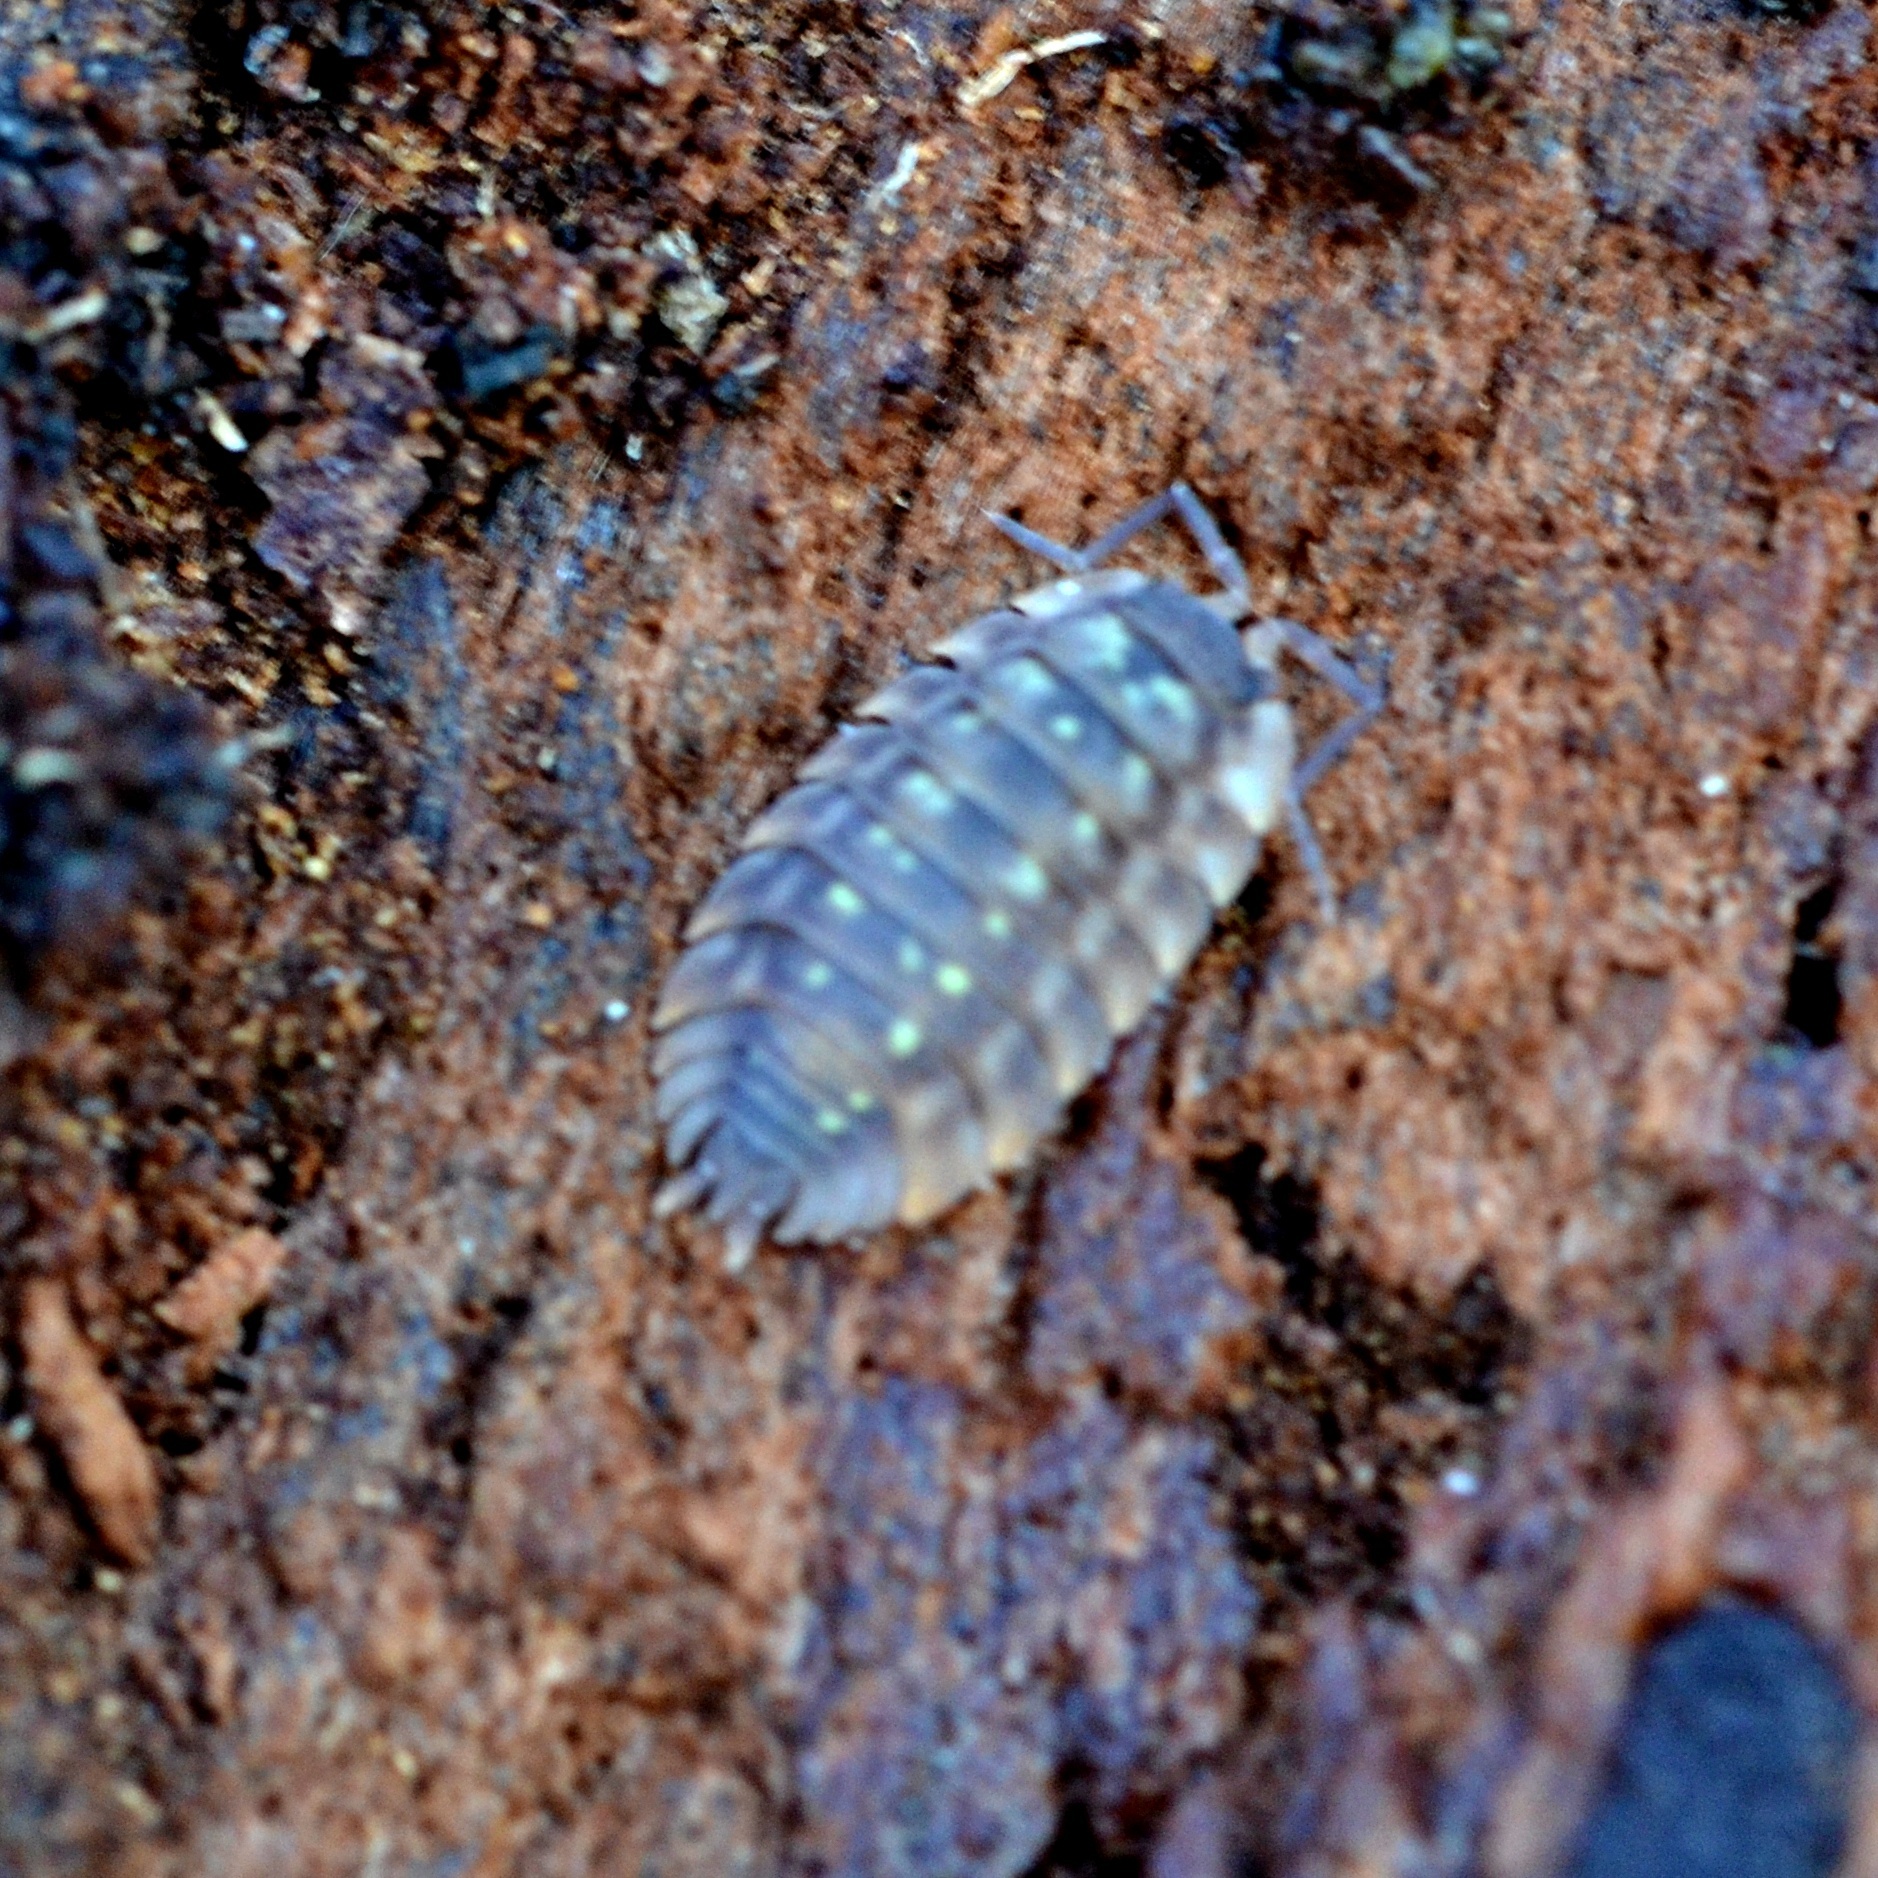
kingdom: Animalia
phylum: Arthropoda
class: Malacostraca
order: Isopoda
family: Oniscidae
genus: Oniscus
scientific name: Oniscus asellus
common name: Common shiny woodlouse
